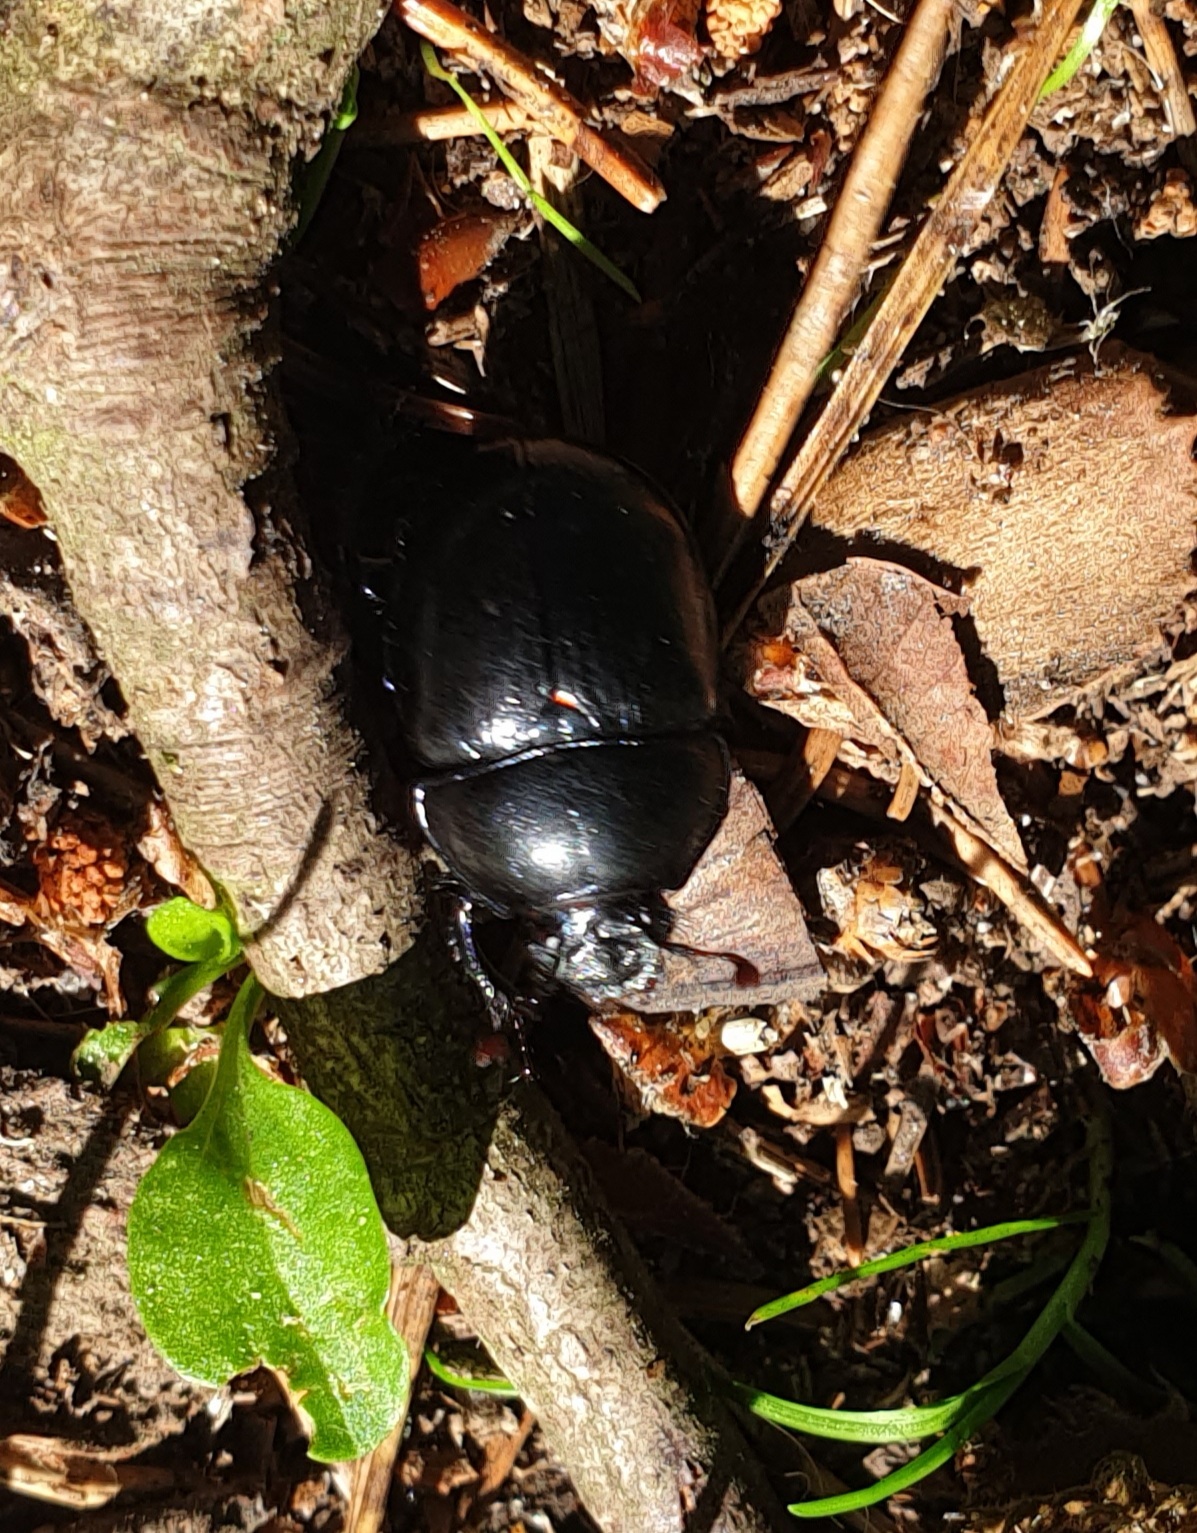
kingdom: Animalia
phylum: Arthropoda
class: Insecta
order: Coleoptera
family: Geotrupidae
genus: Anoplotrupes
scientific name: Anoplotrupes stercorosus
